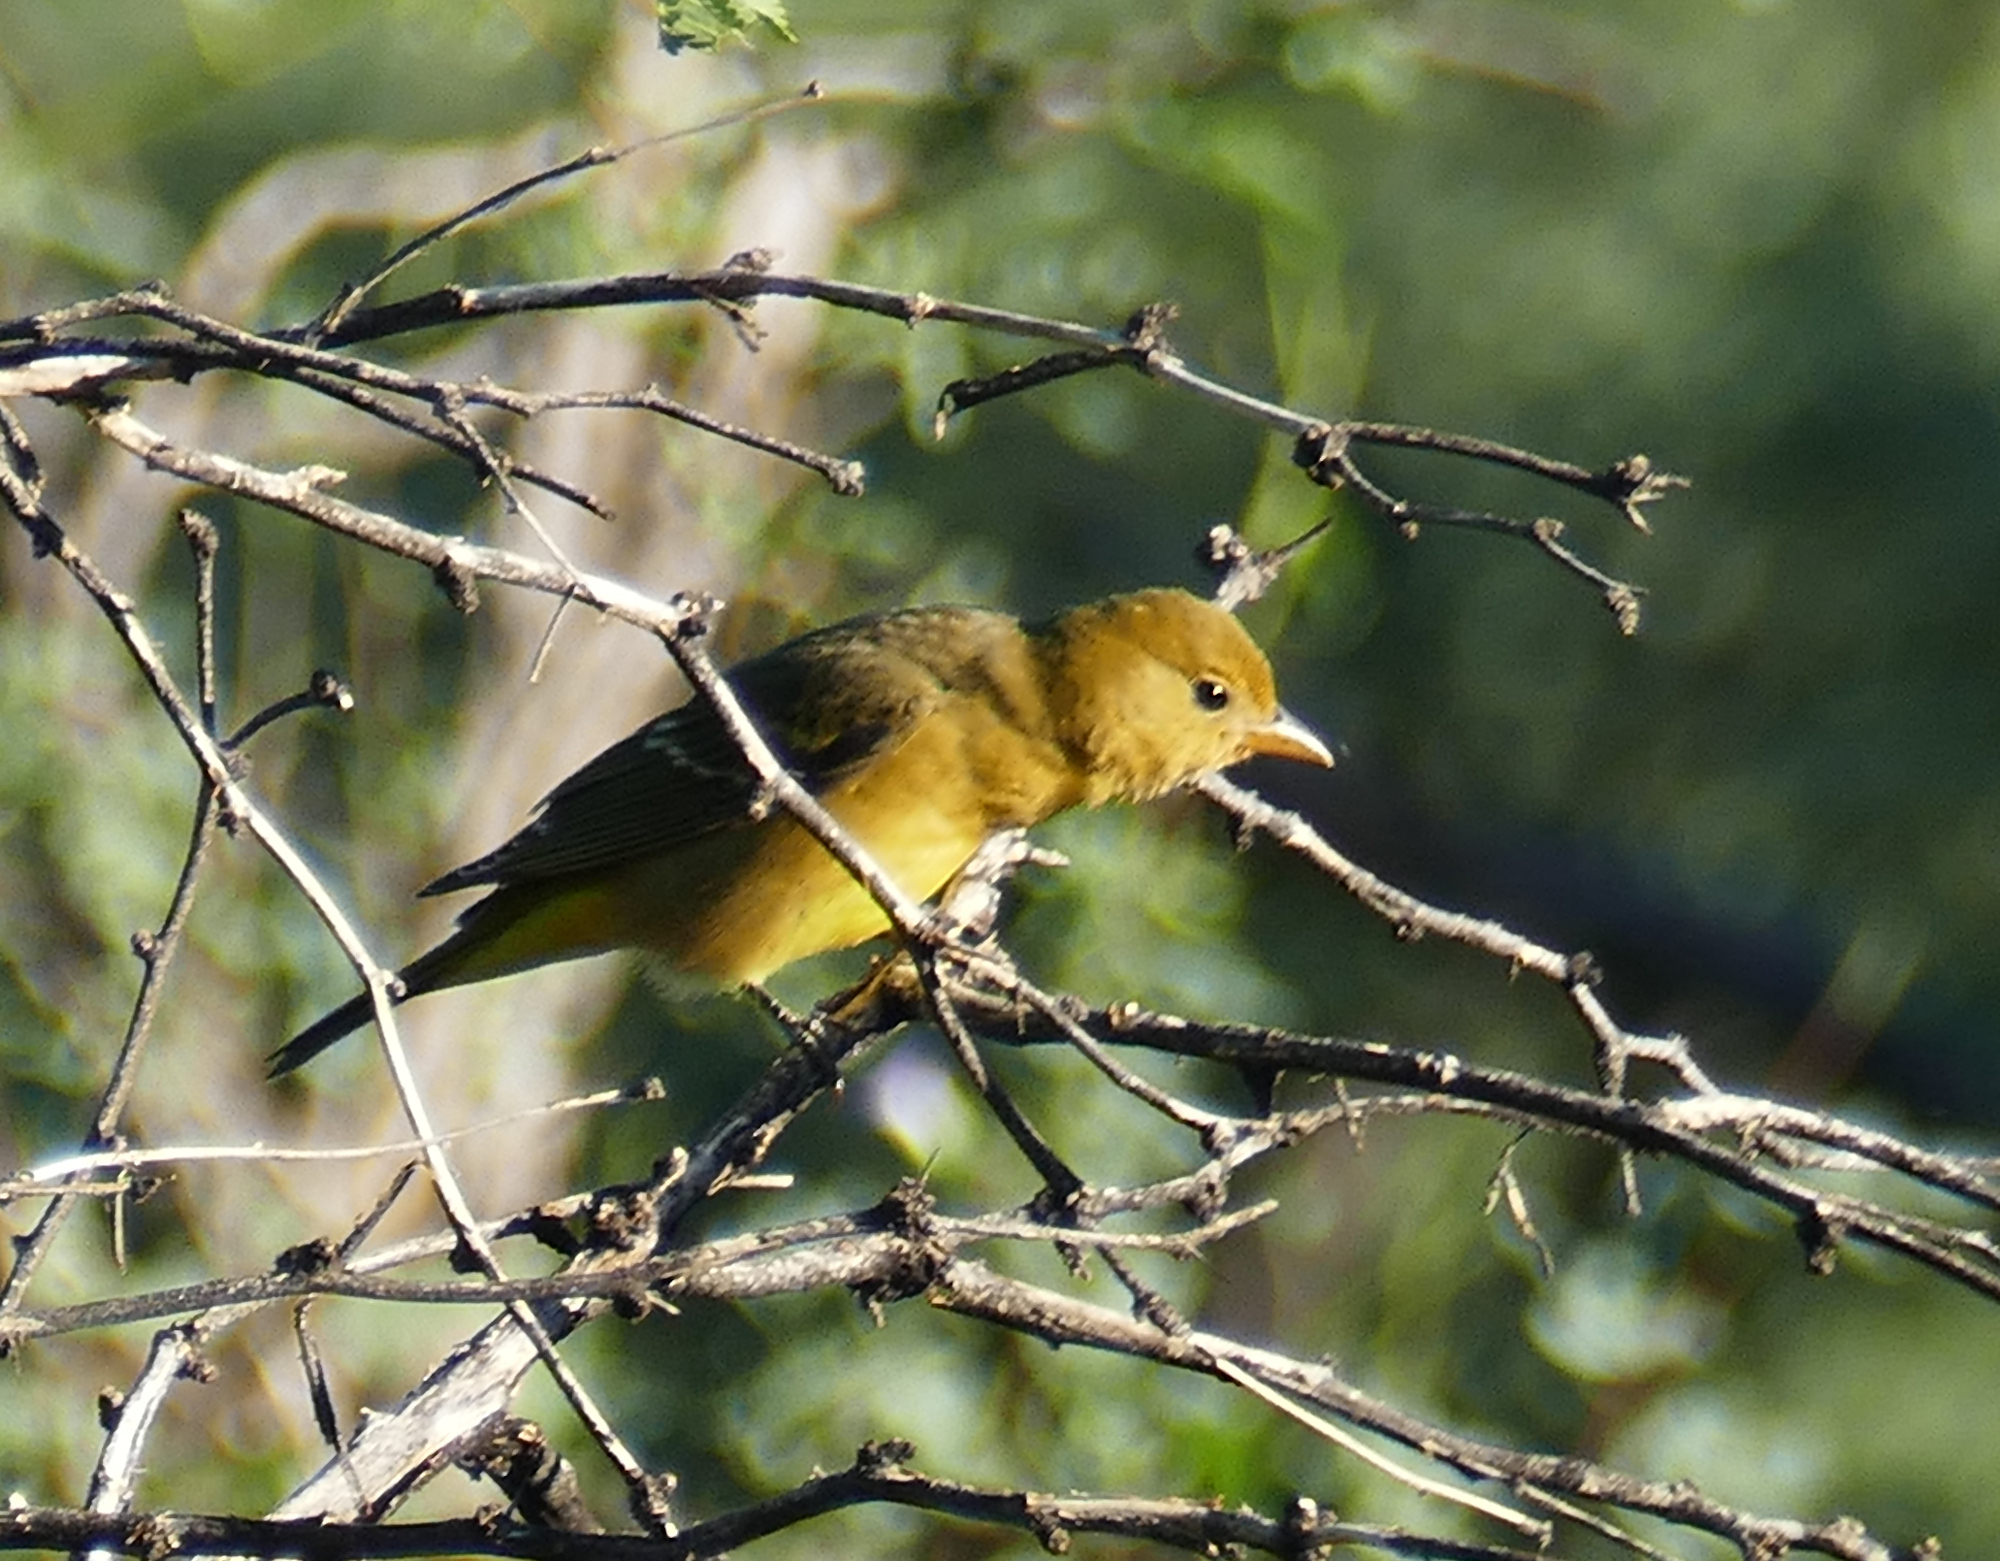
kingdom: Animalia
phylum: Chordata
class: Aves
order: Passeriformes
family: Cardinalidae
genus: Piranga
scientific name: Piranga ludoviciana
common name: Western tanager
